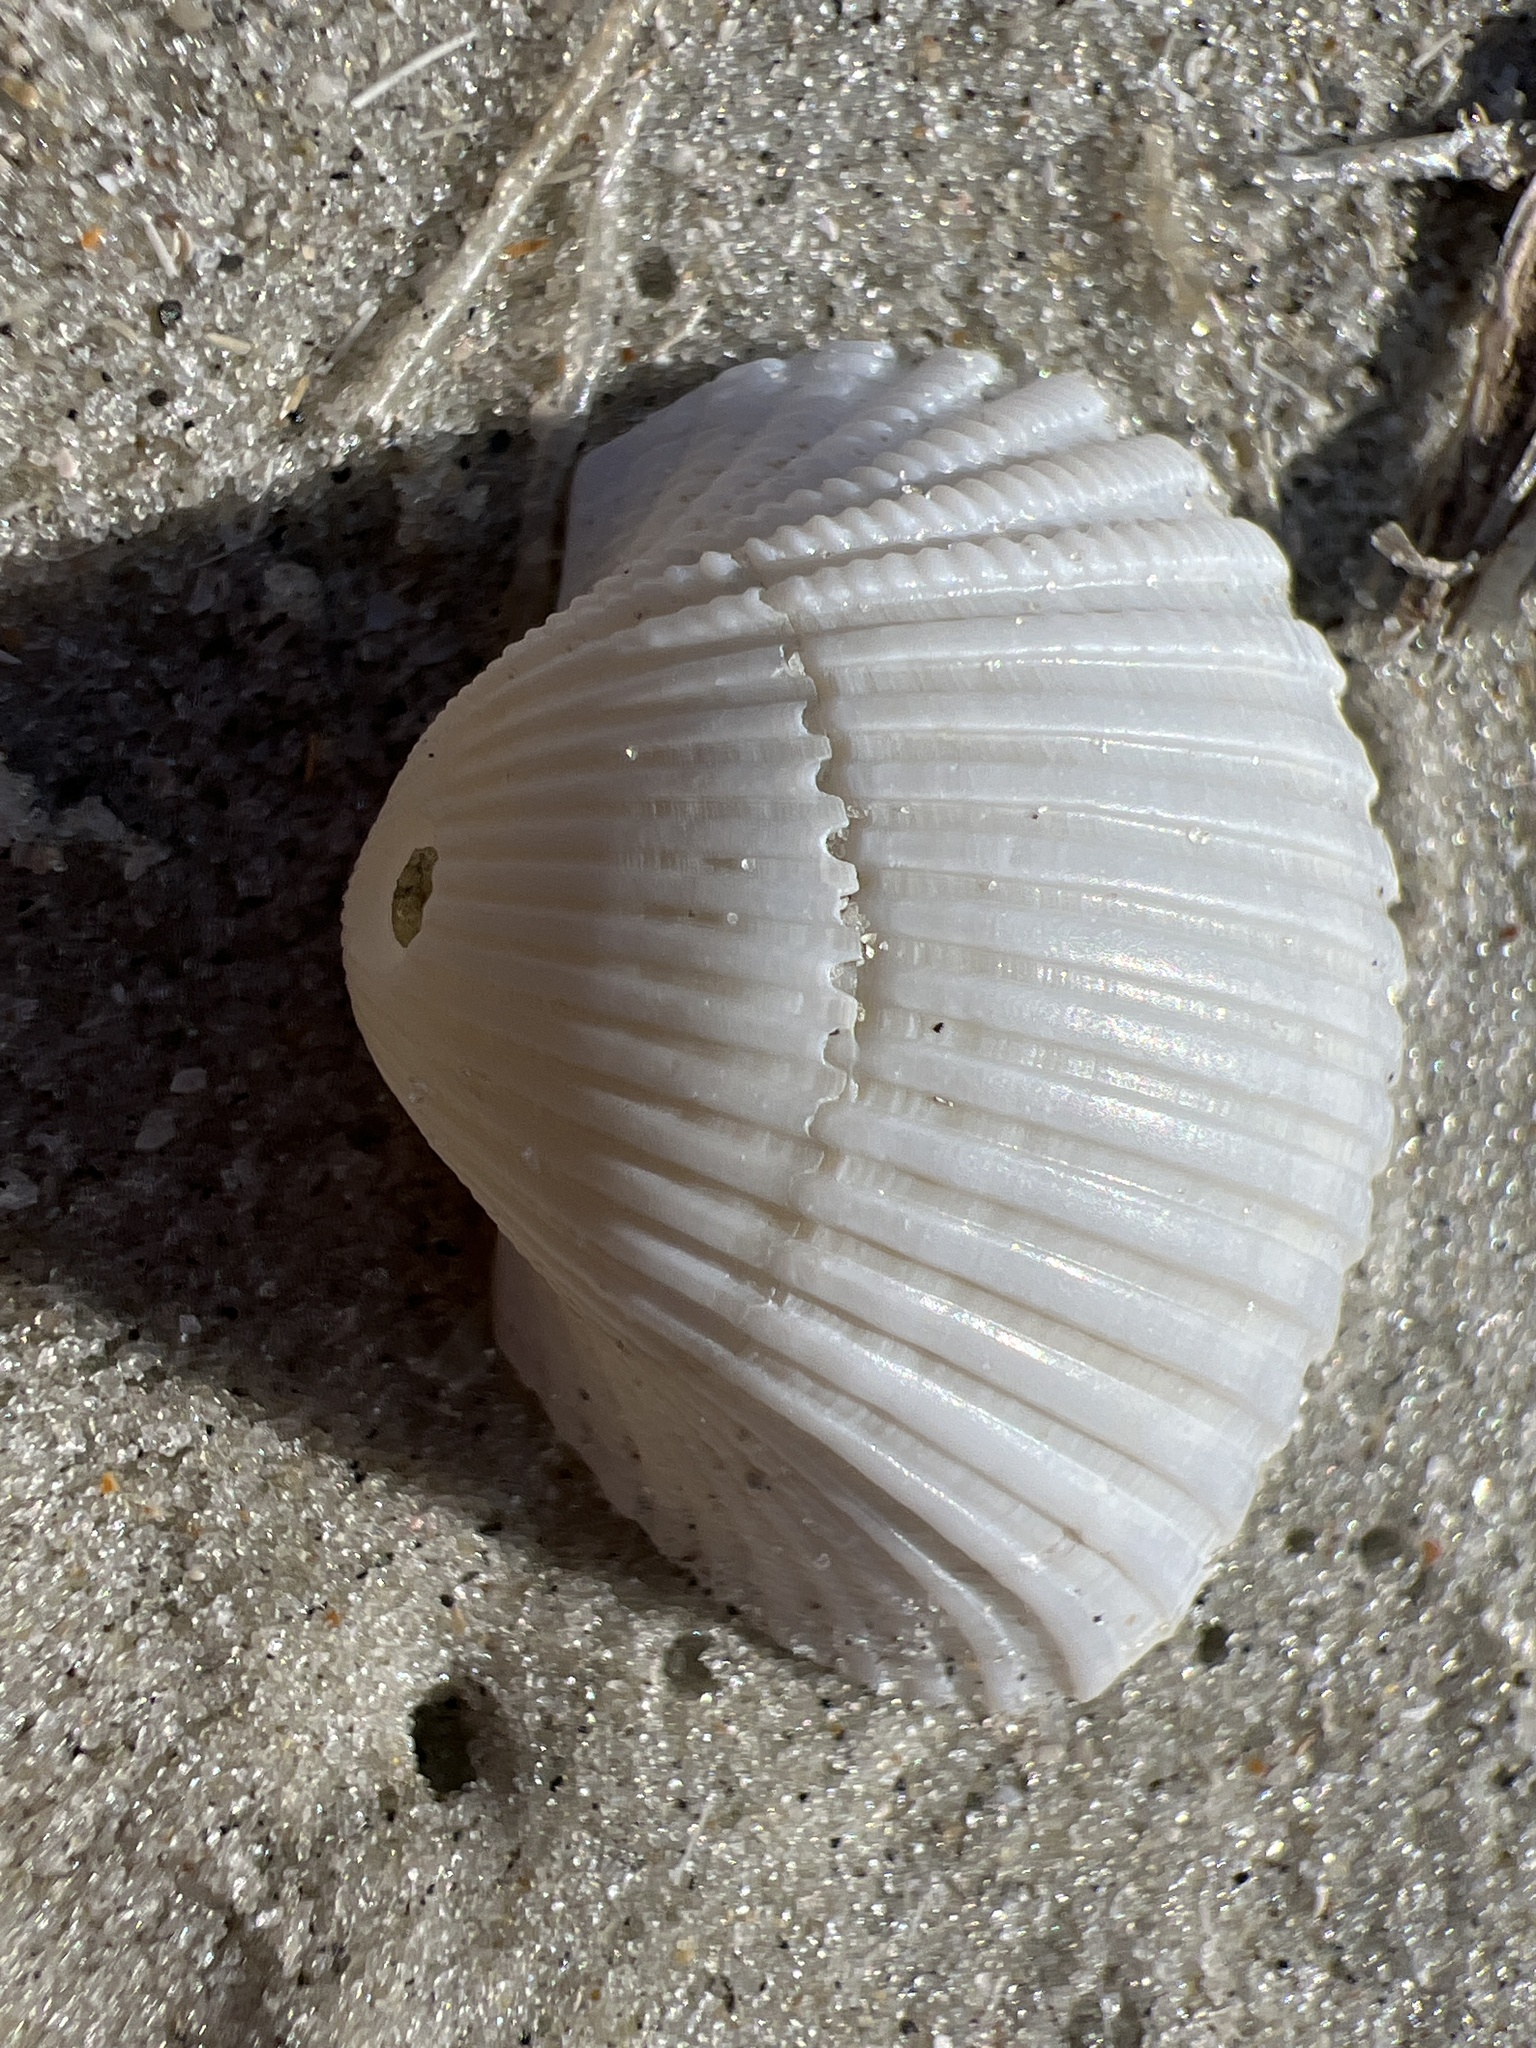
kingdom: Animalia
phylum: Mollusca
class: Bivalvia
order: Arcida
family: Arcidae
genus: Anadara
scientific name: Anadara brasiliana
